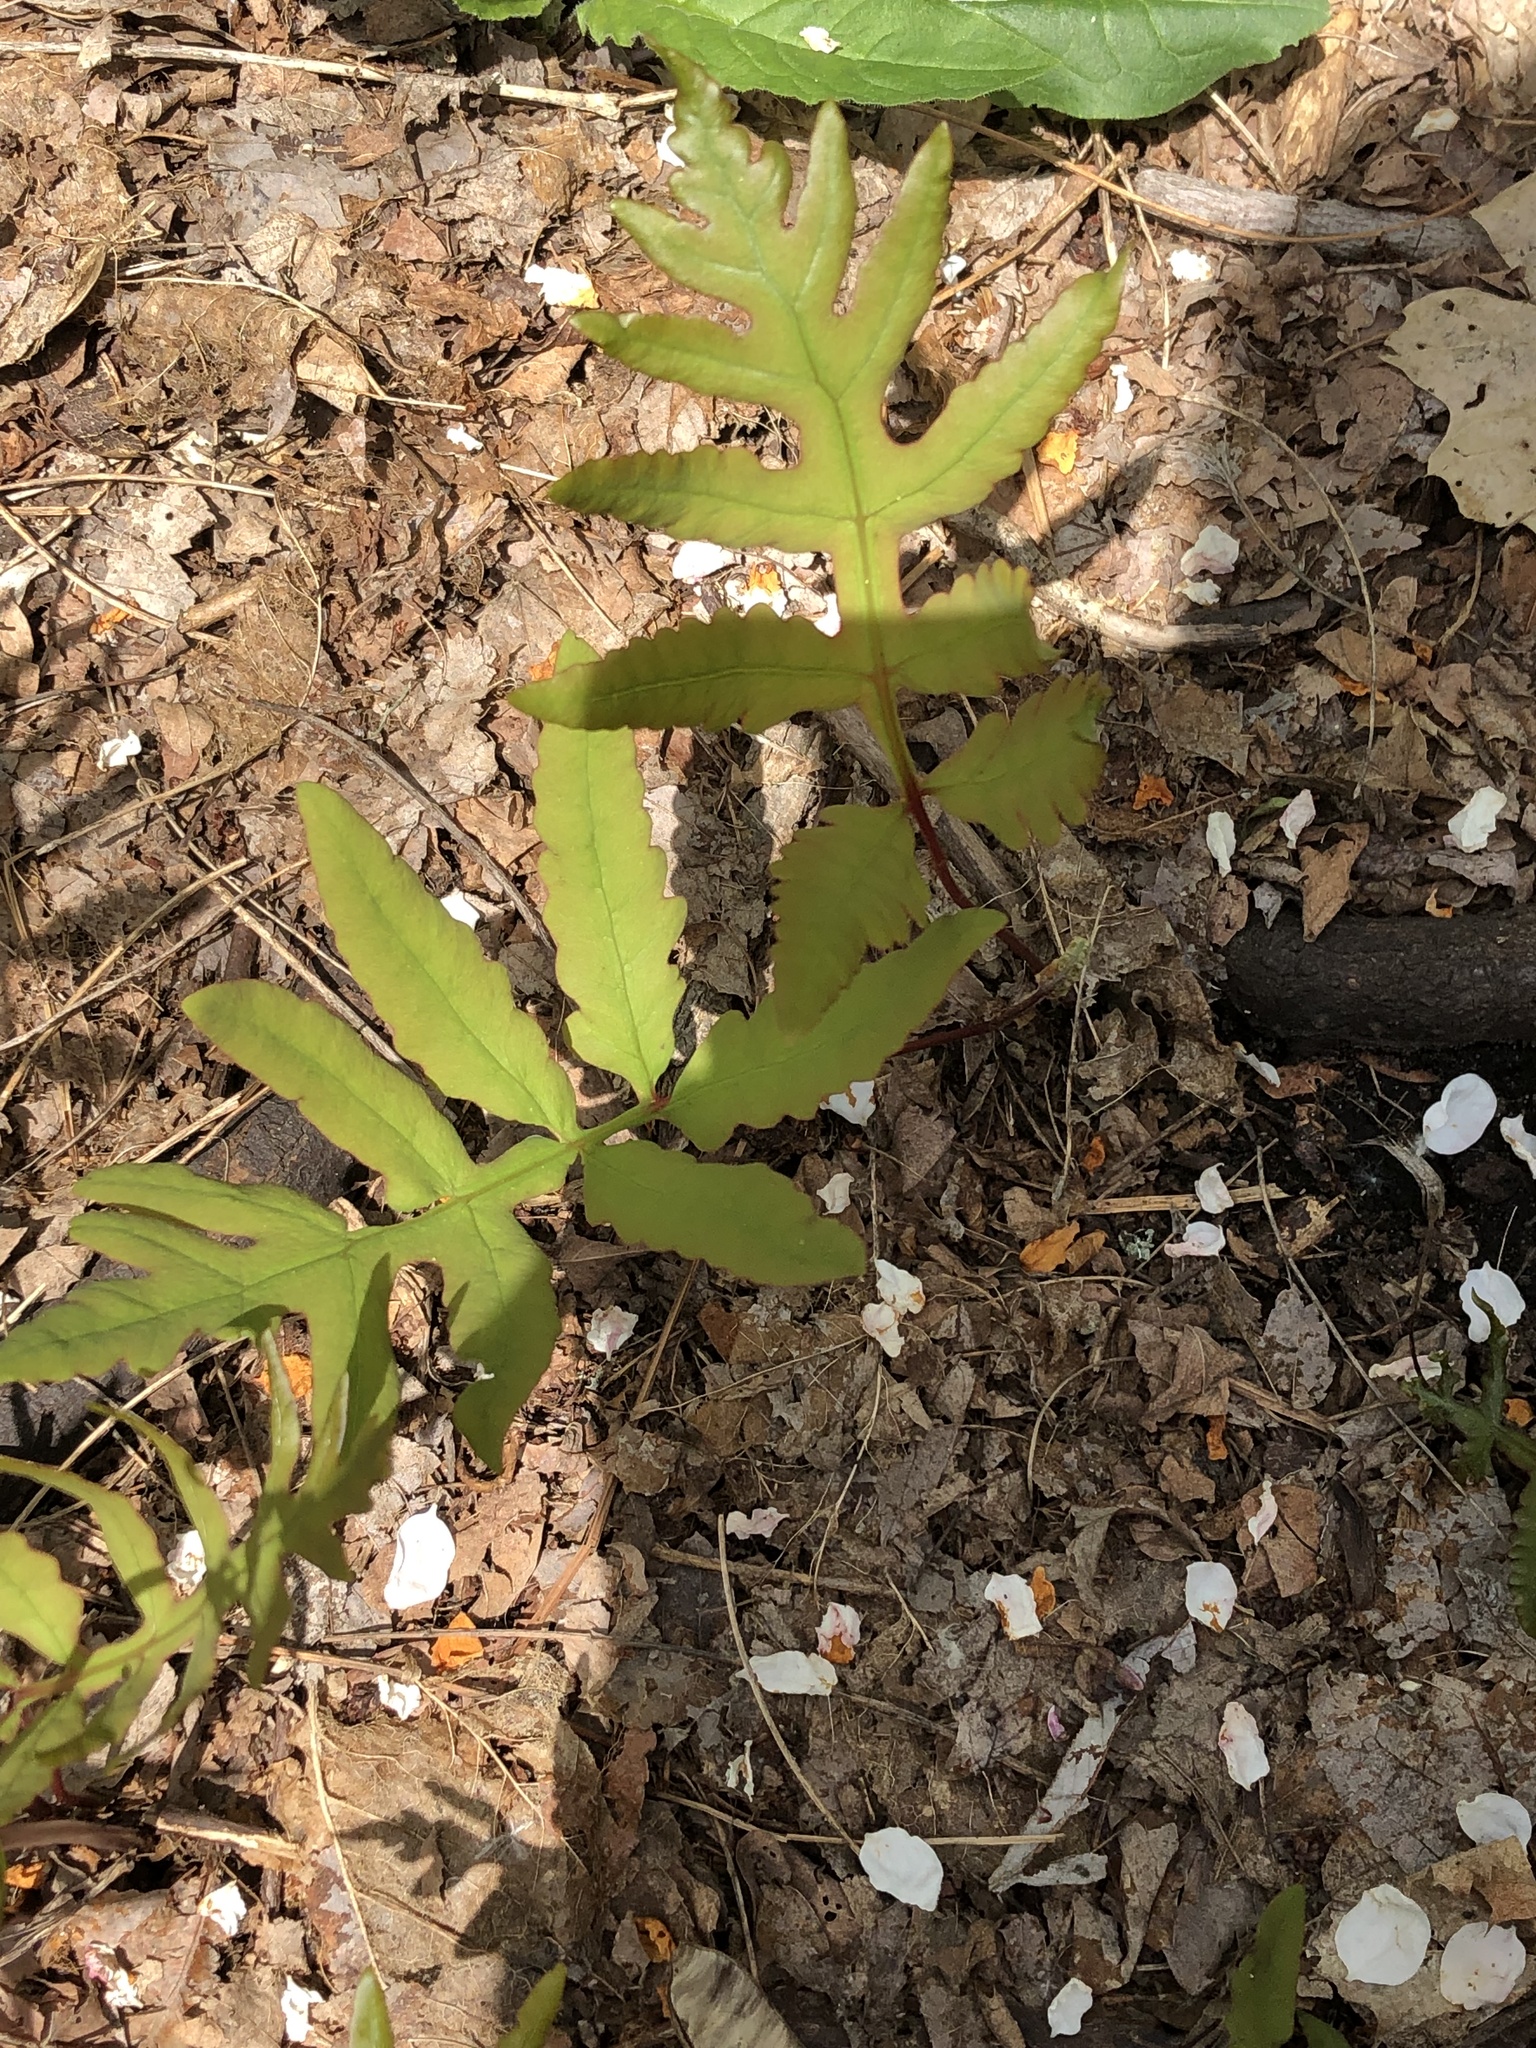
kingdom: Plantae
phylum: Tracheophyta
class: Polypodiopsida
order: Polypodiales
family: Onocleaceae
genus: Onoclea
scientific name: Onoclea sensibilis
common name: Sensitive fern
